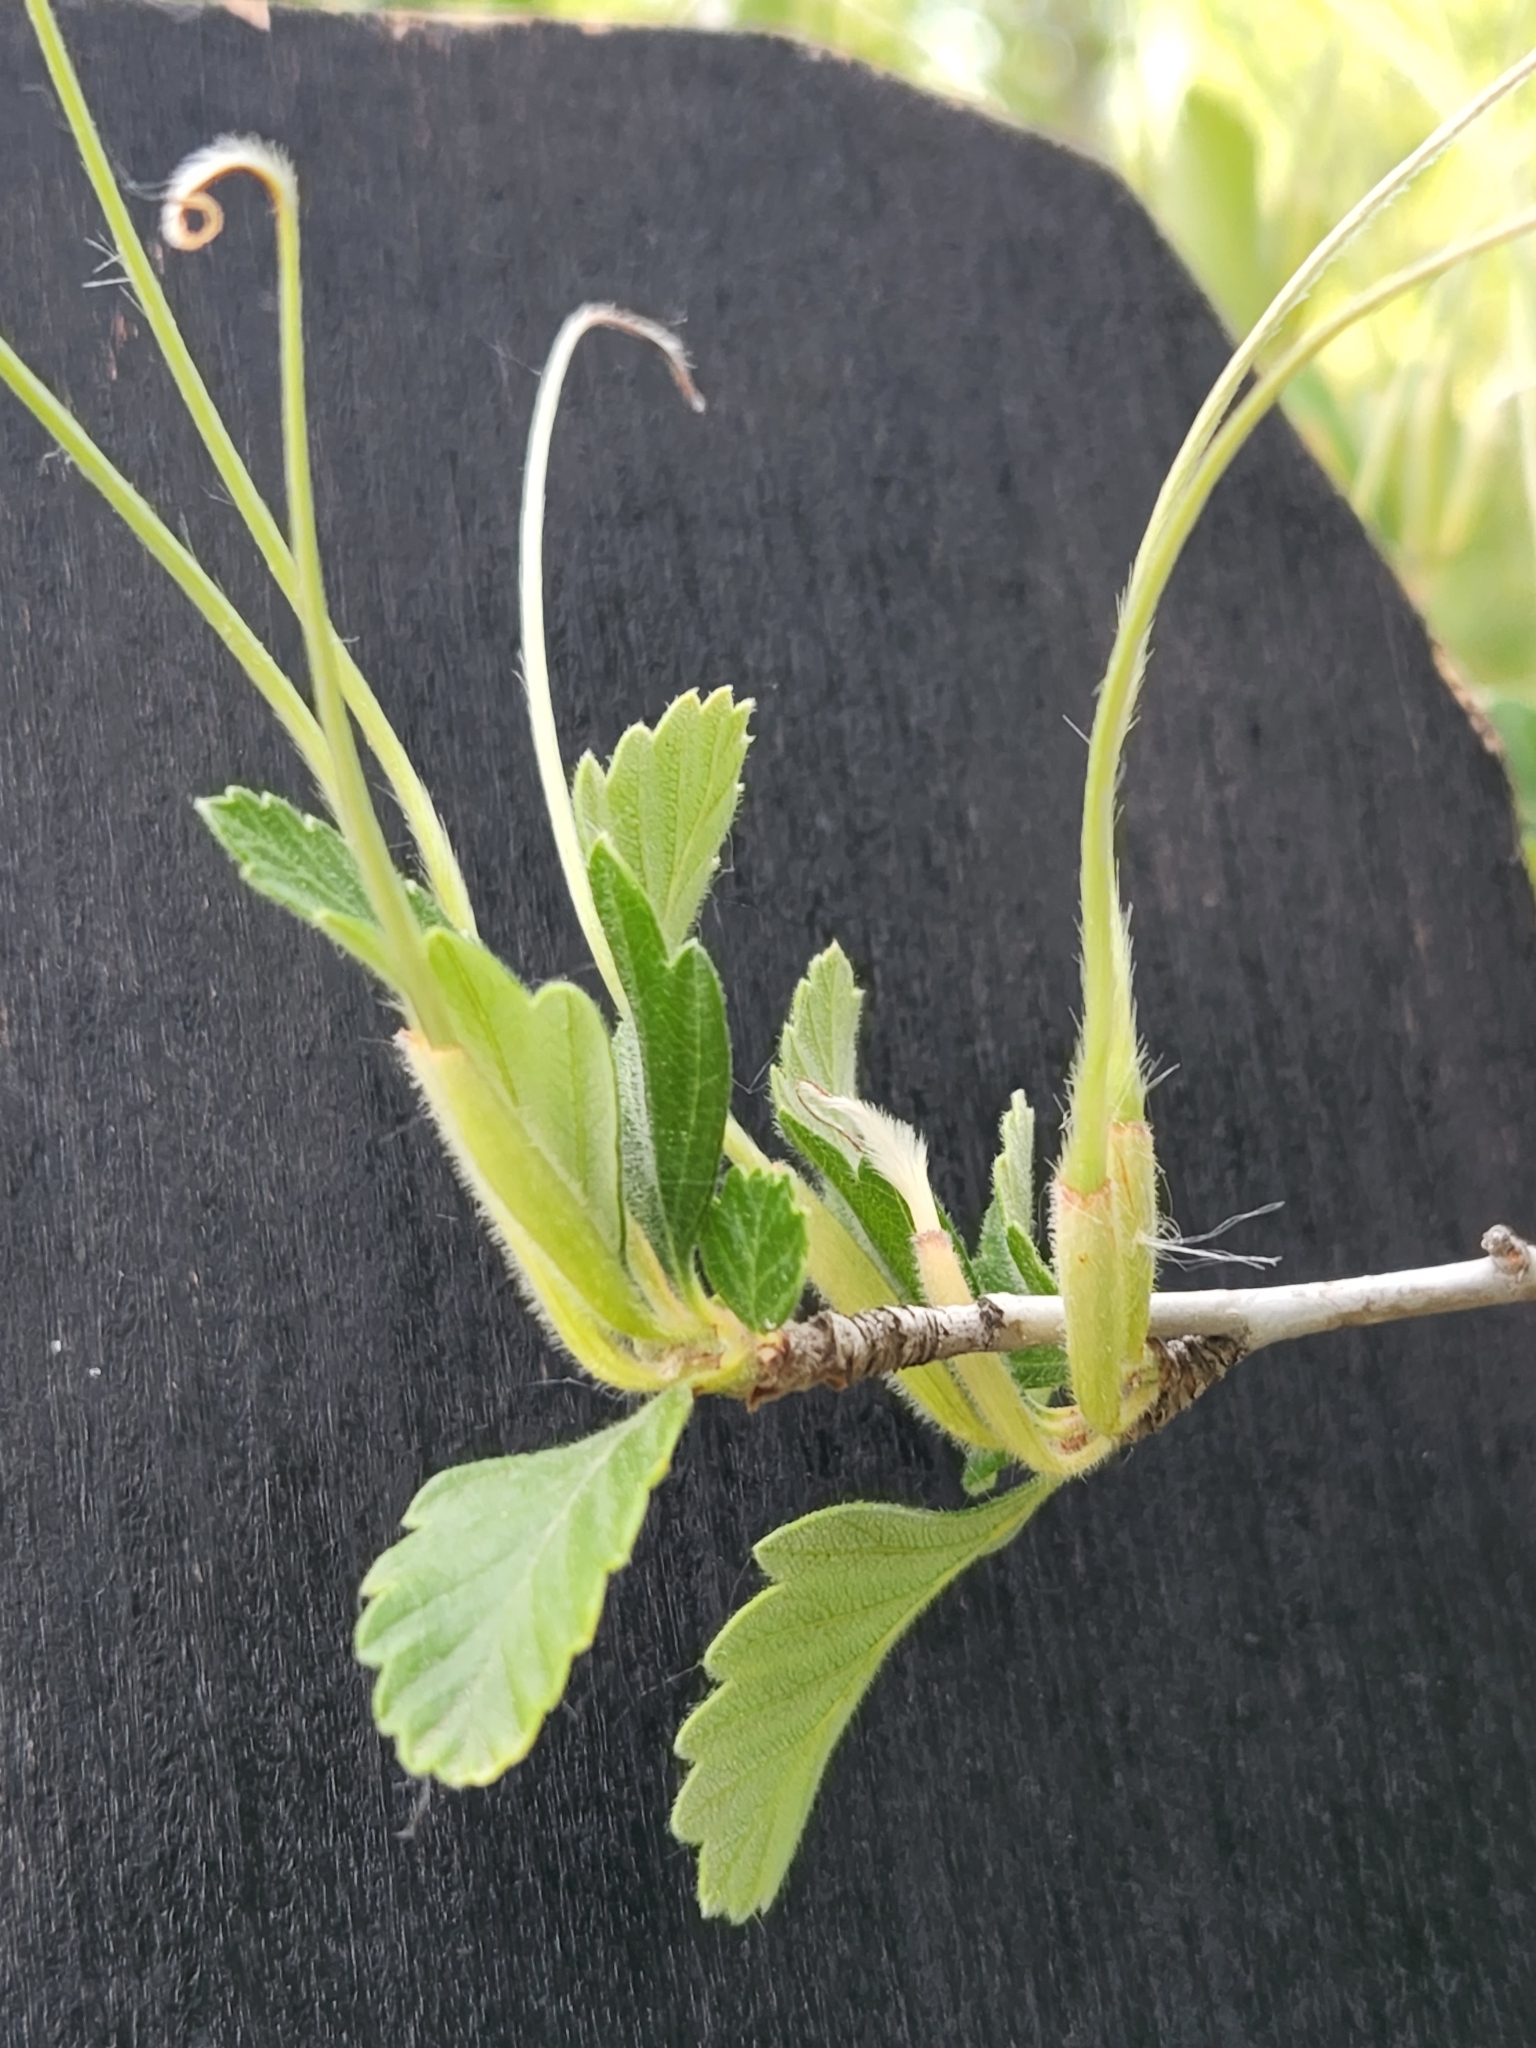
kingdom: Plantae
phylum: Tracheophyta
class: Magnoliopsida
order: Rosales
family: Rosaceae
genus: Cercocarpus
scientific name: Cercocarpus montanus
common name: Alder-leaf cercocarpus
